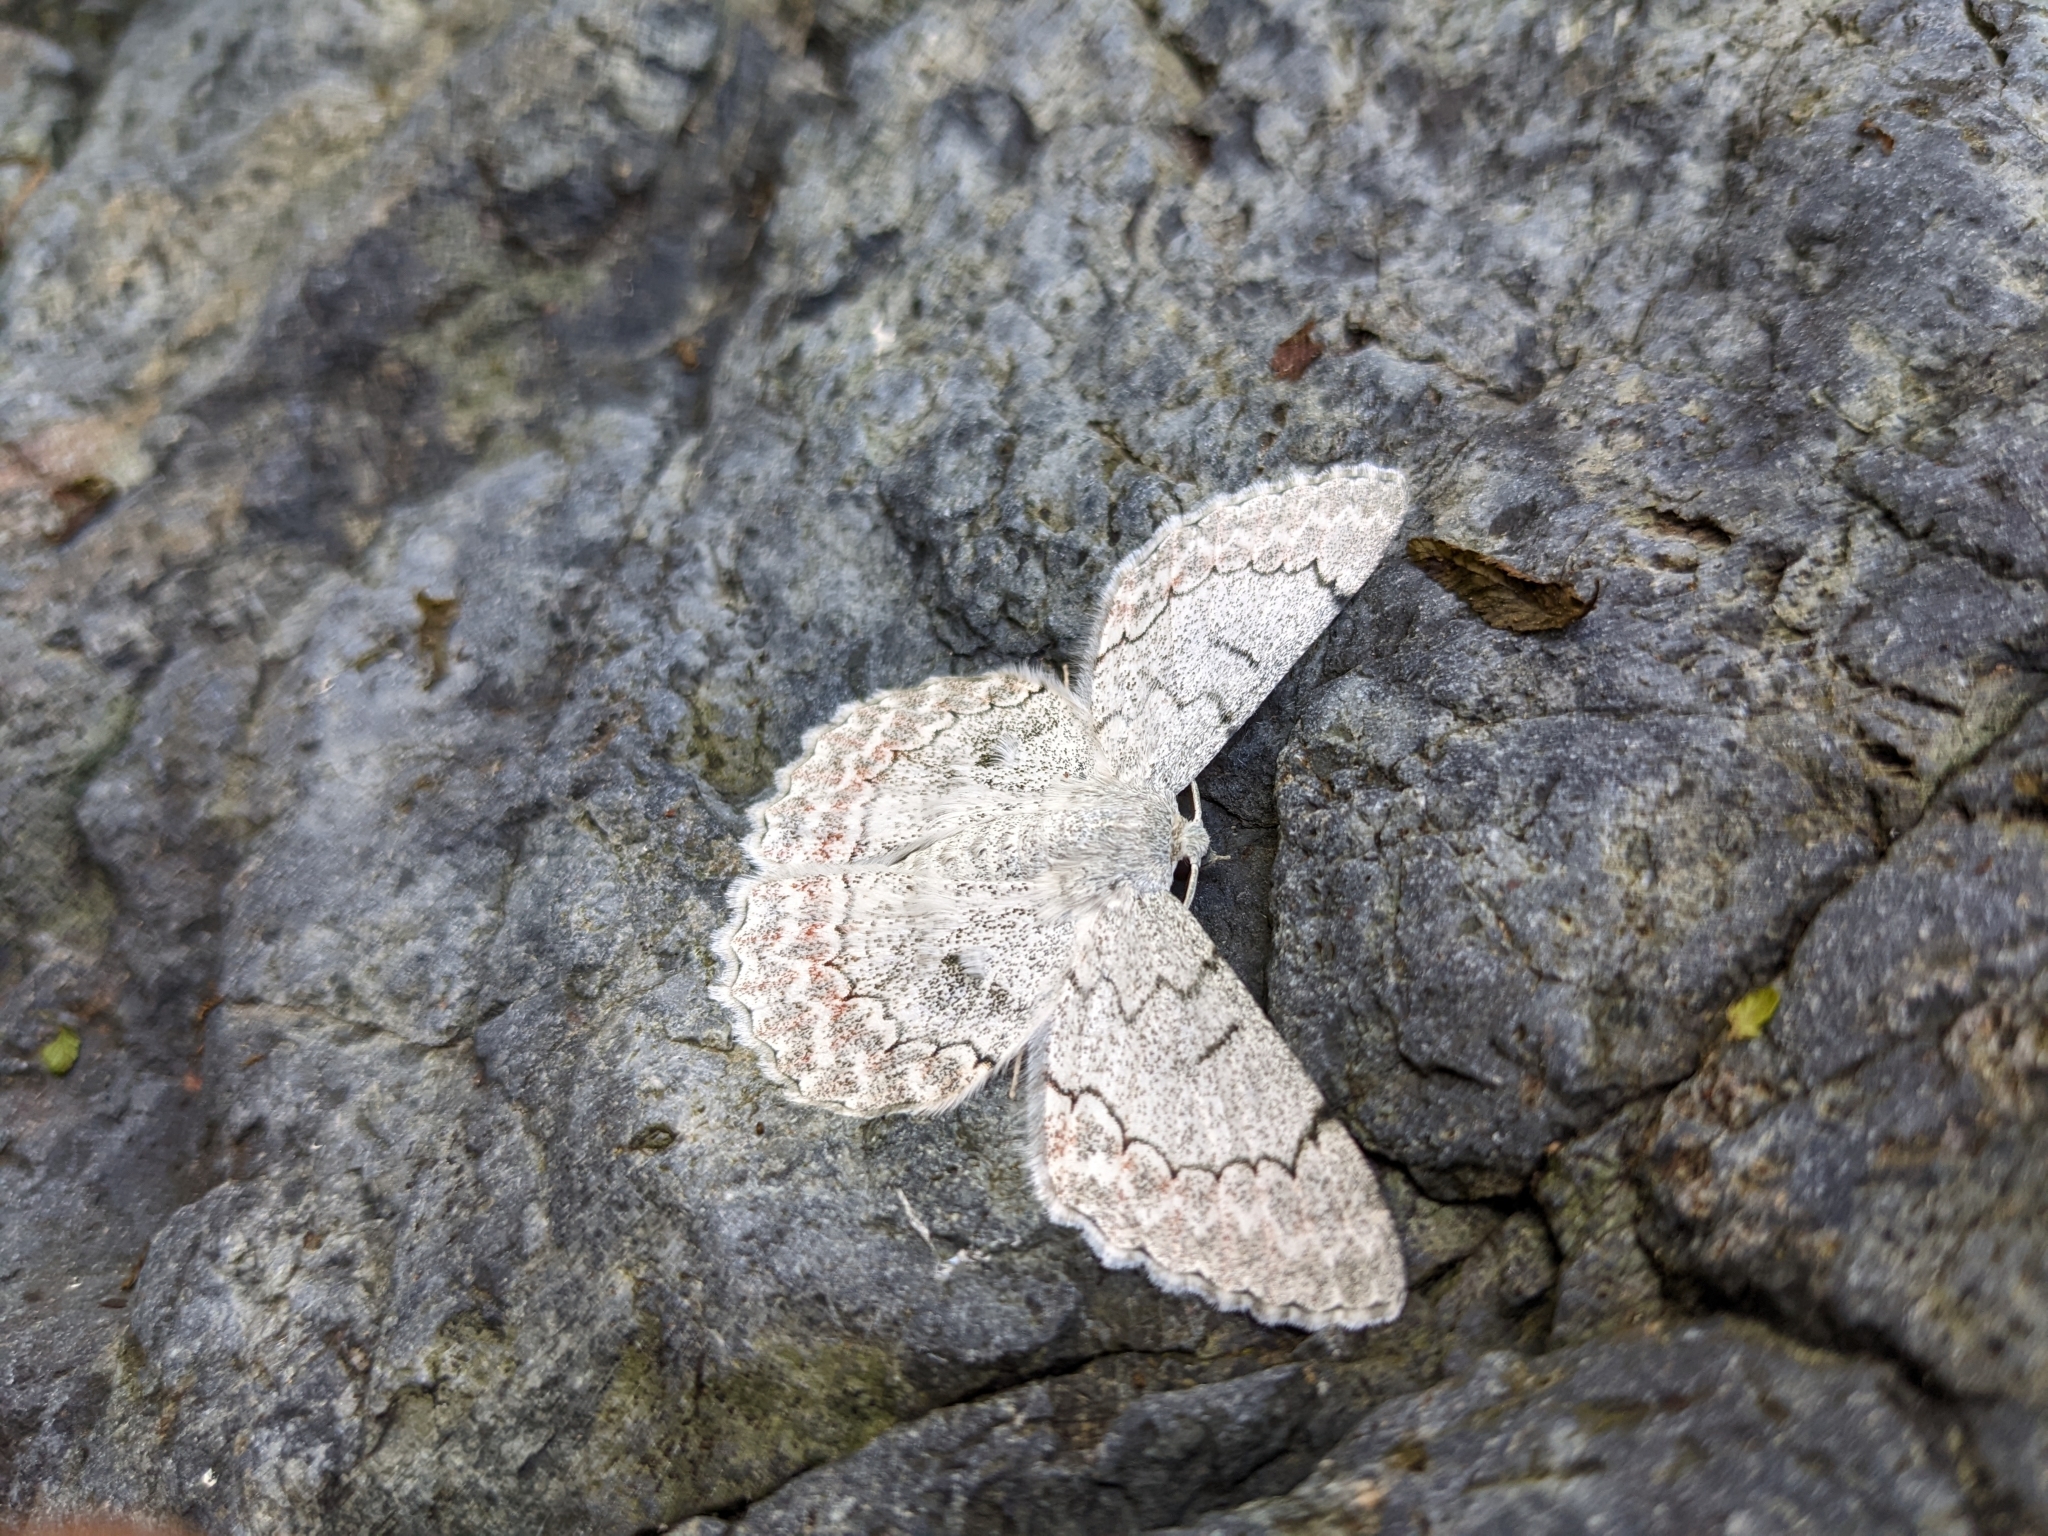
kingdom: Animalia
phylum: Arthropoda
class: Insecta
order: Lepidoptera
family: Geometridae
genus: Pingasa
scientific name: Pingasa chlora
